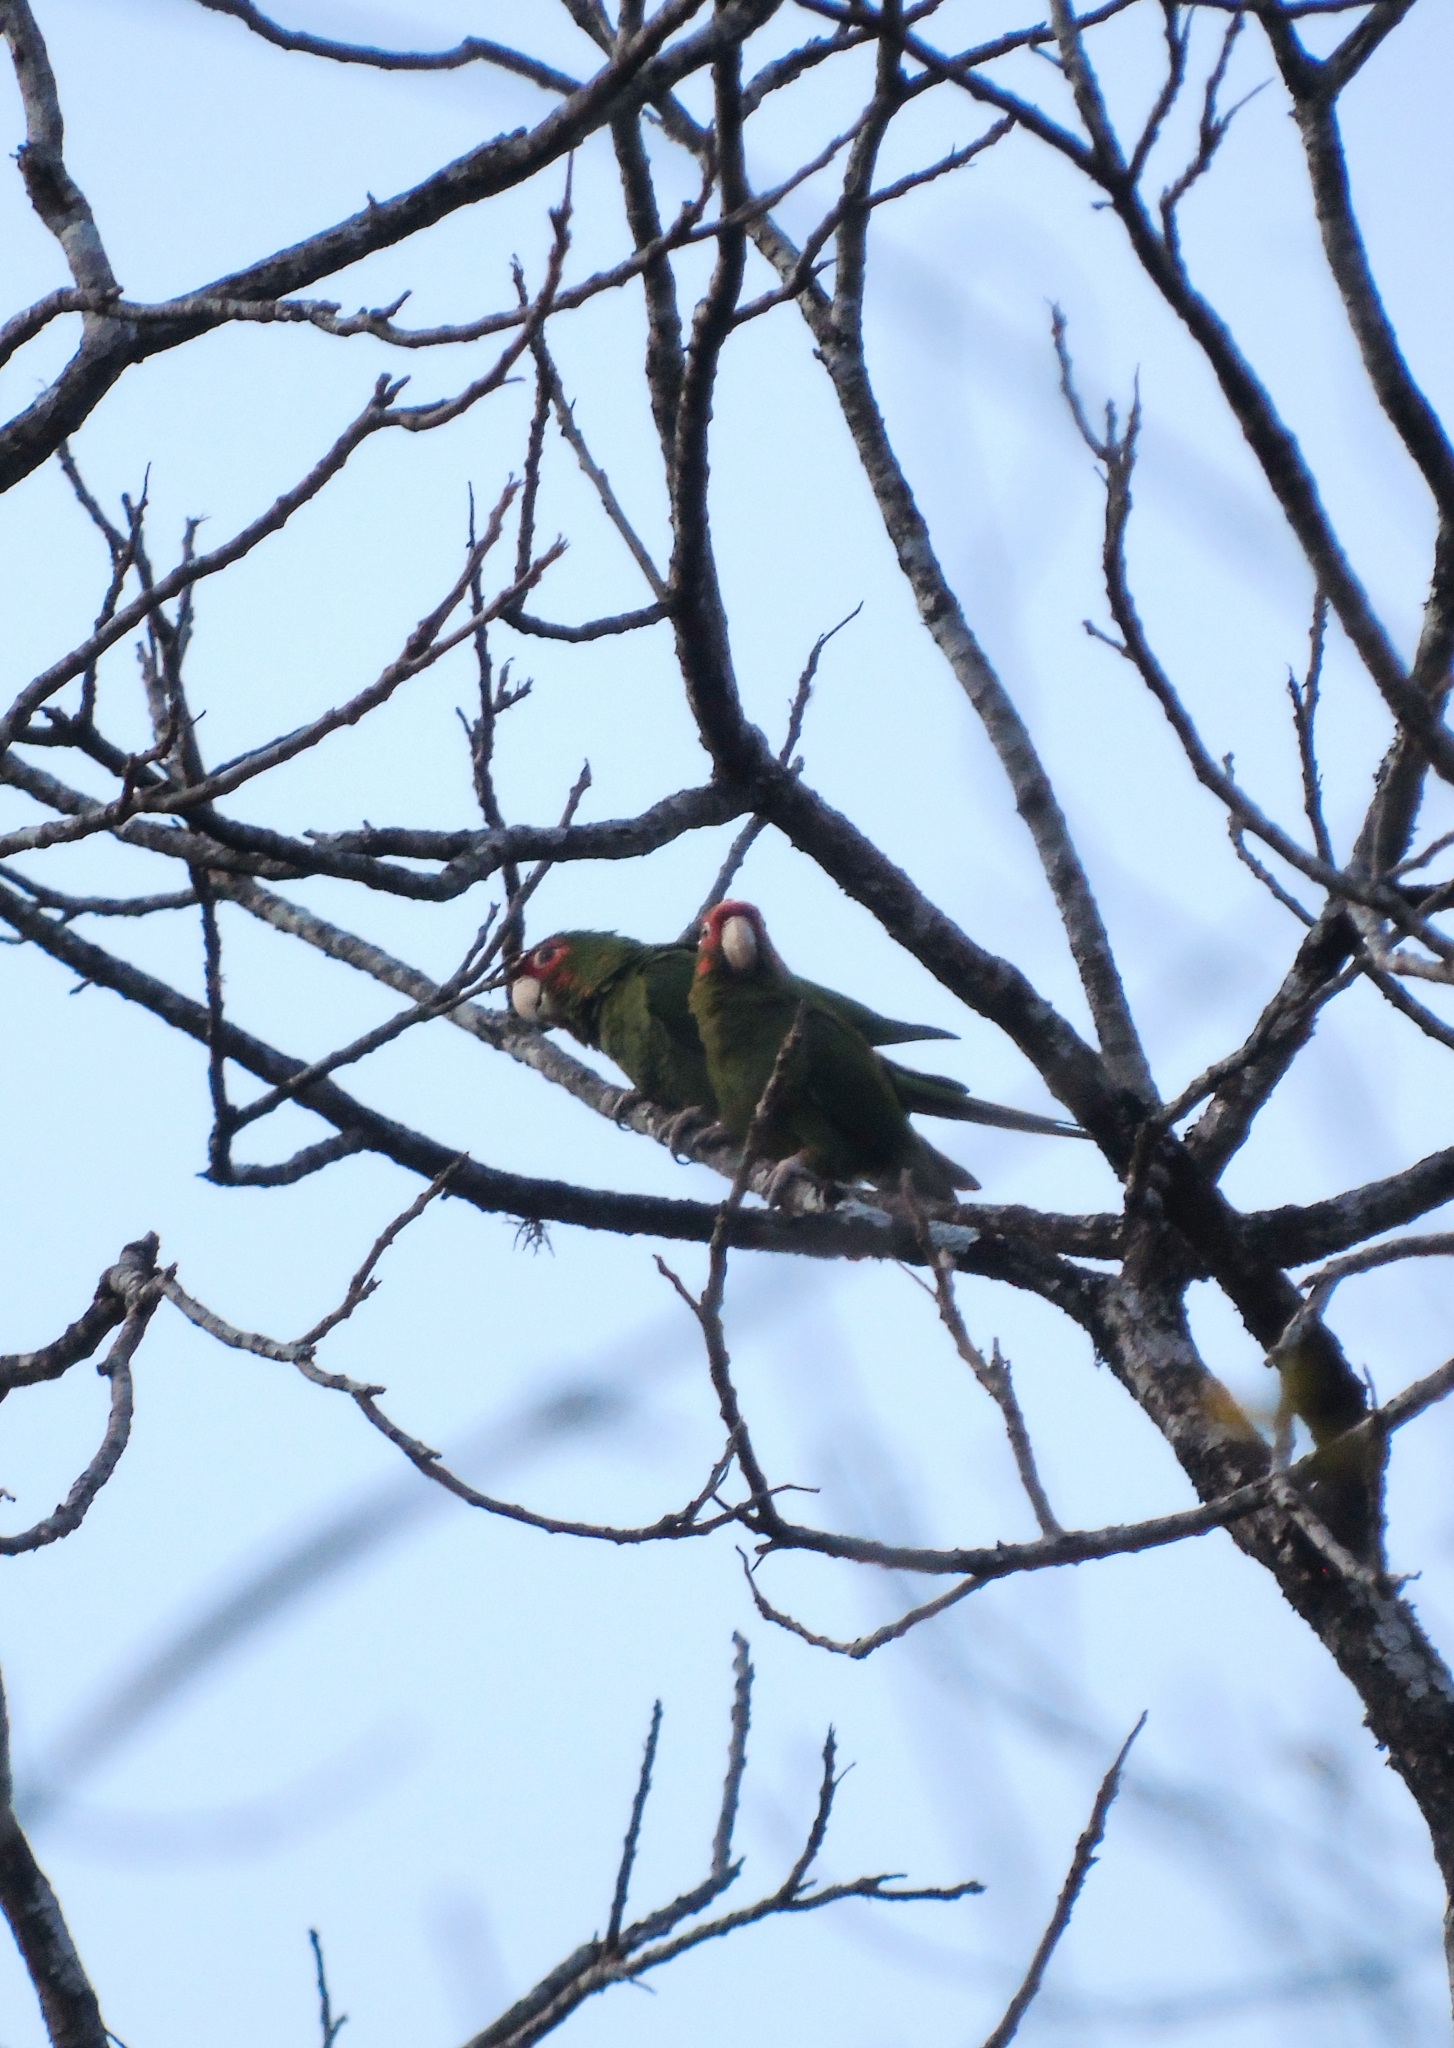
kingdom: Animalia
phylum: Chordata
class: Aves
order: Psittaciformes
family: Psittacidae
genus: Aratinga
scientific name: Aratinga mitrata
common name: Mitred parakeet
